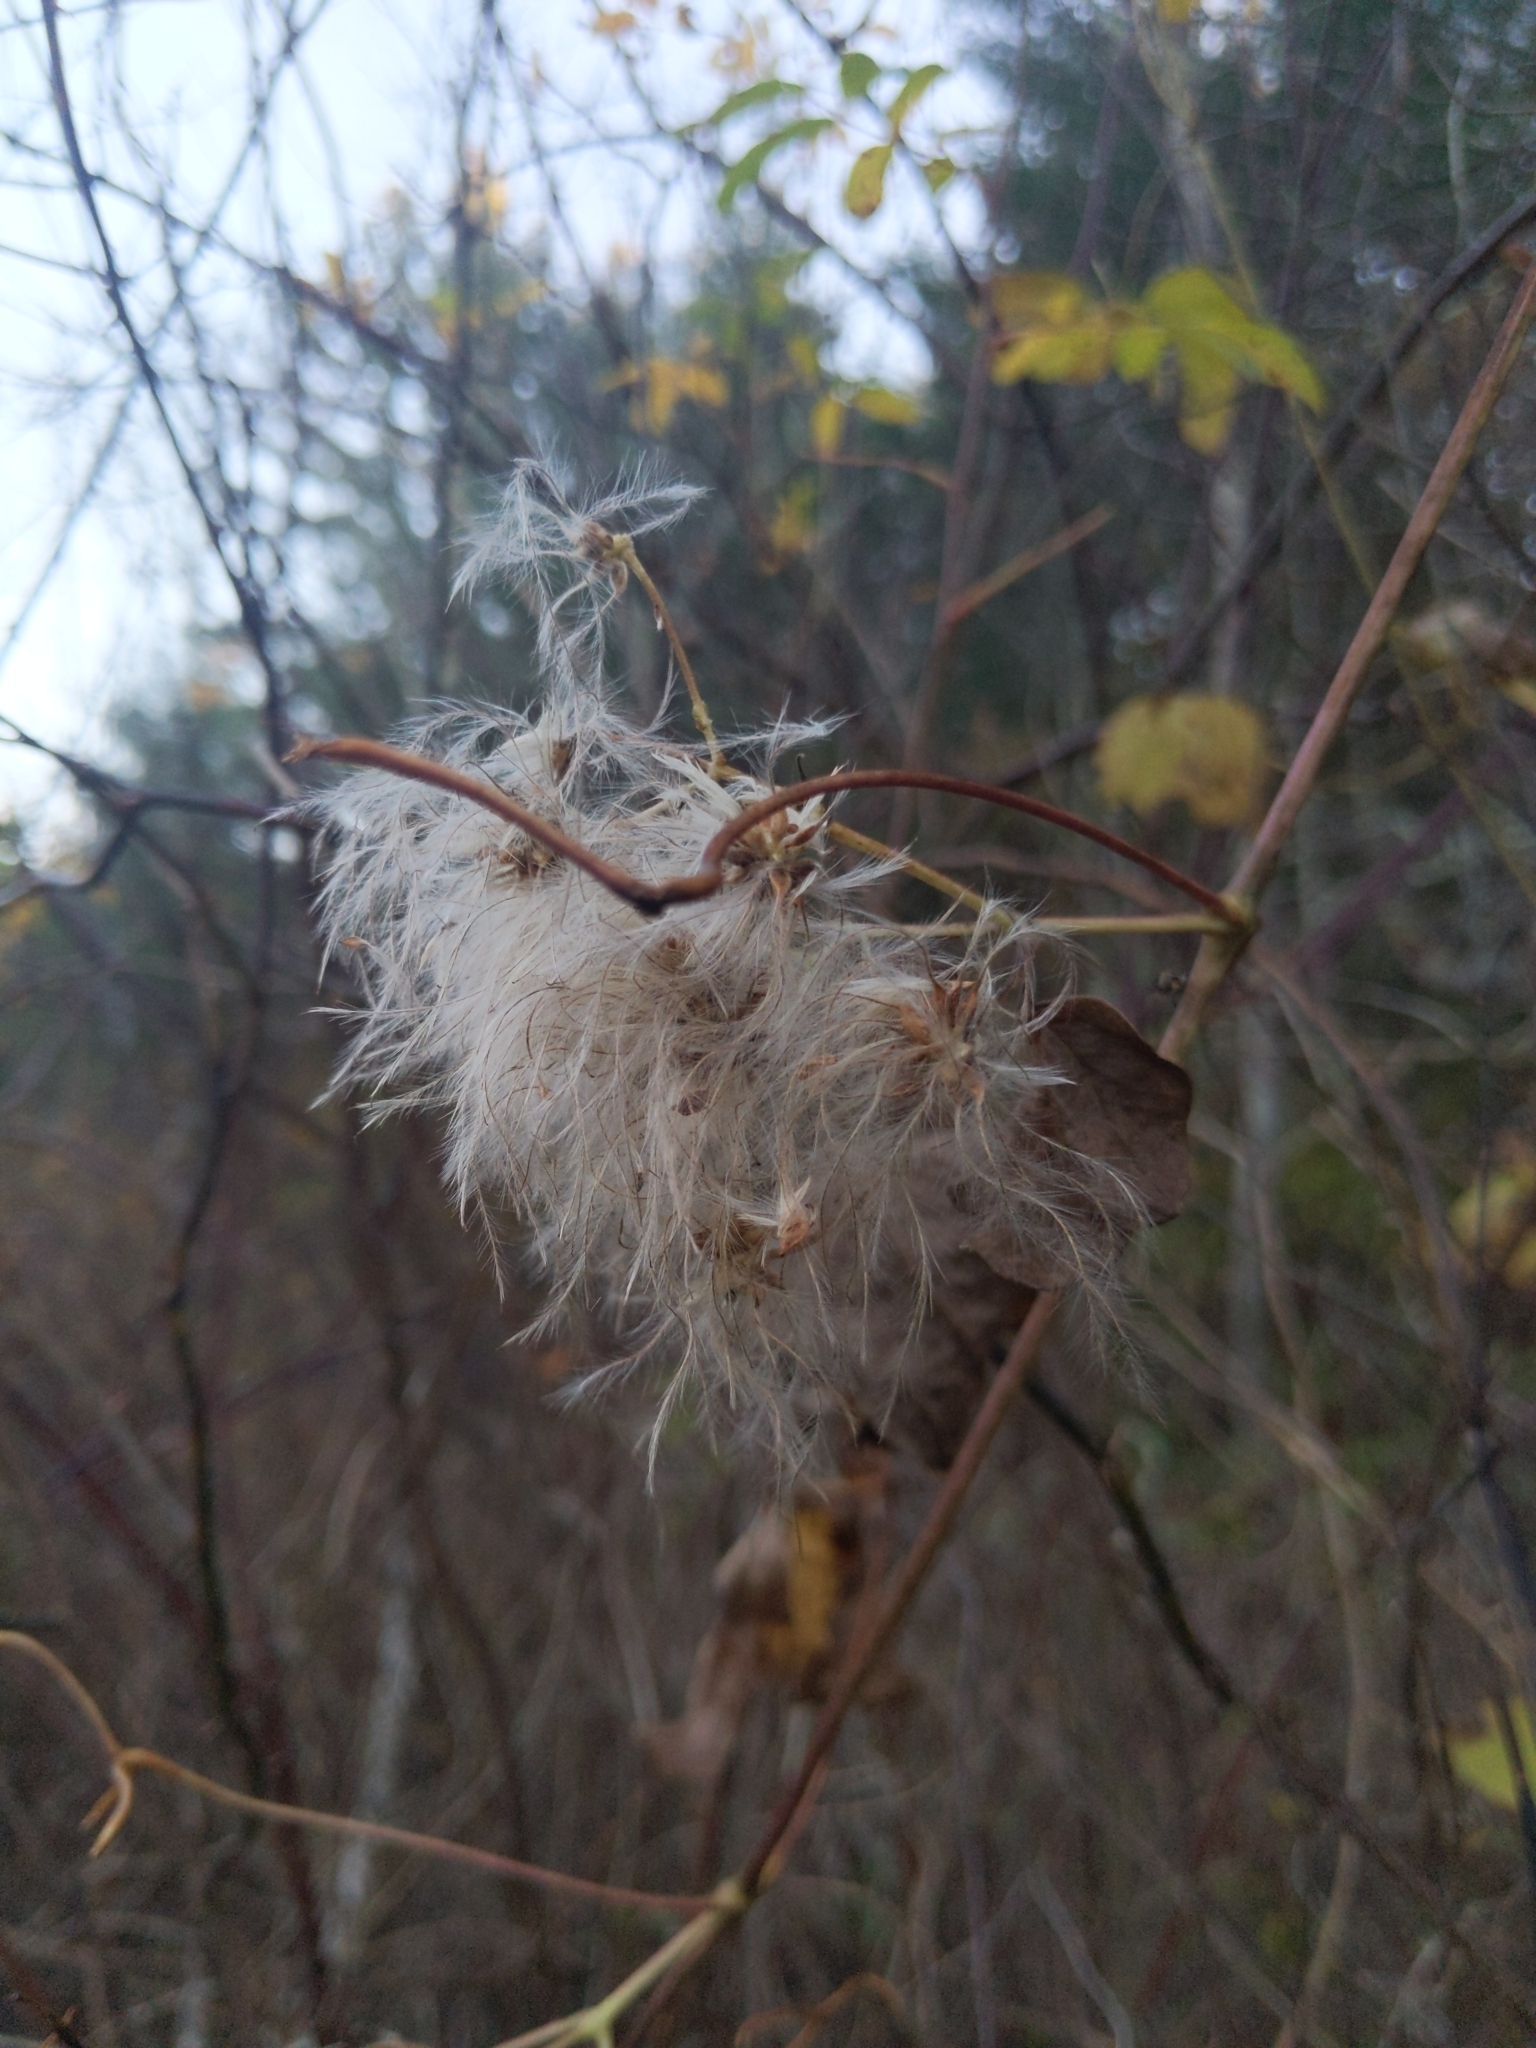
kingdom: Plantae
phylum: Tracheophyta
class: Magnoliopsida
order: Ranunculales
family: Ranunculaceae
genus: Clematis
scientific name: Clematis virginiana
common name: Virgin's-bower
